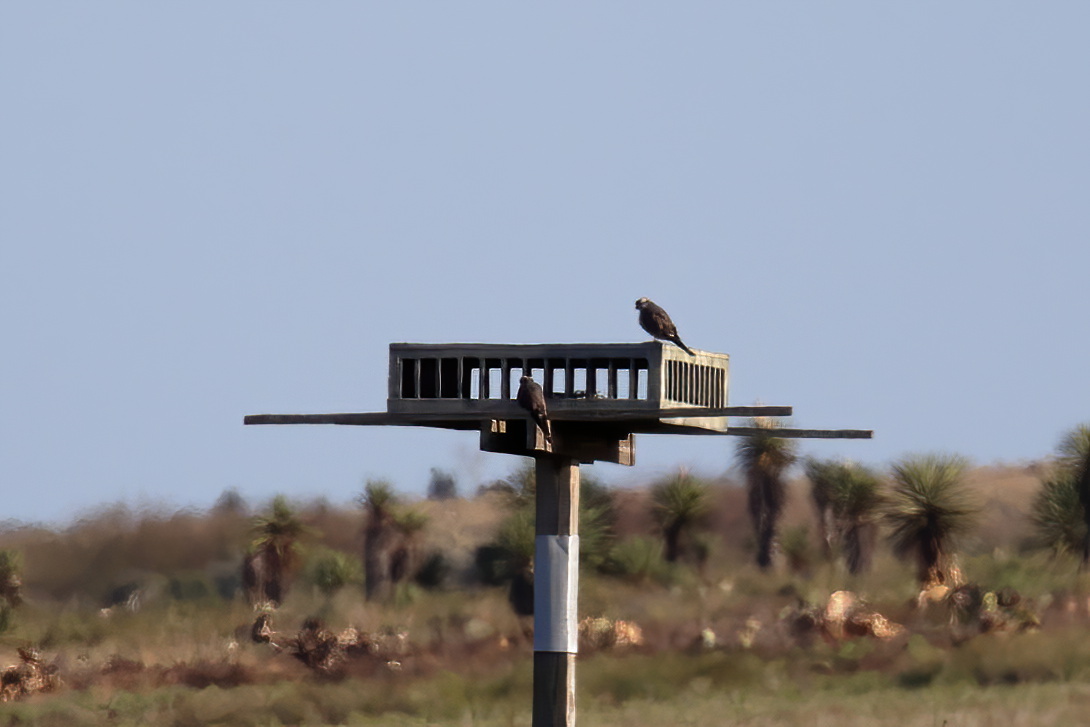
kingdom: Animalia
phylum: Chordata
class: Aves
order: Falconiformes
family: Falconidae
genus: Falco
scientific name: Falco femoralis
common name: Aplomado falcon
